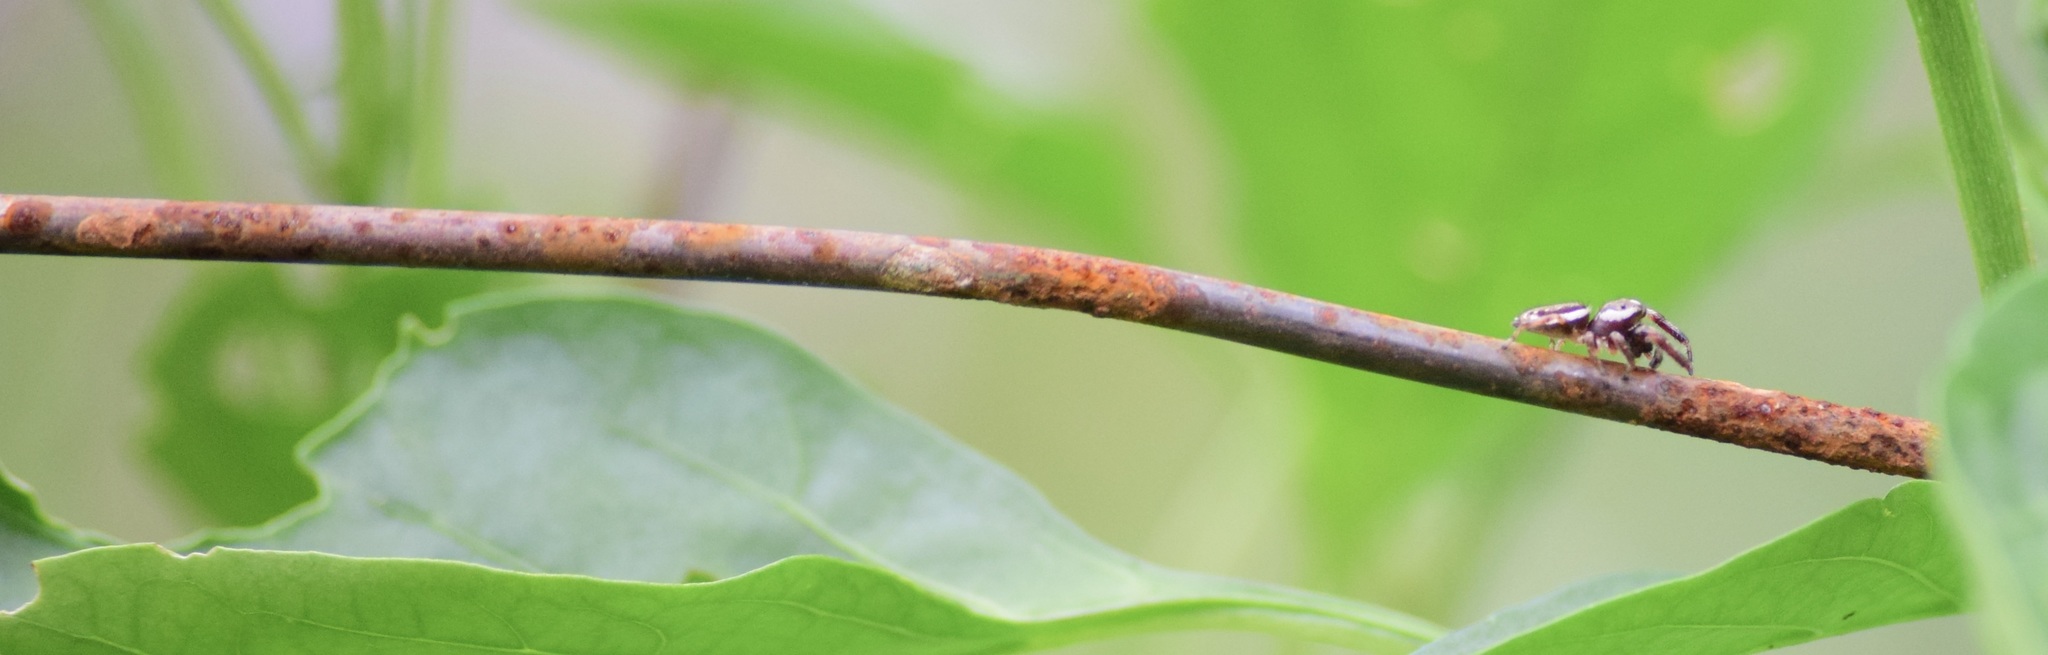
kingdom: Animalia
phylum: Arthropoda
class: Arachnida
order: Araneae
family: Salticidae
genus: Eris
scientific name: Eris militaris
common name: Bronze jumper
